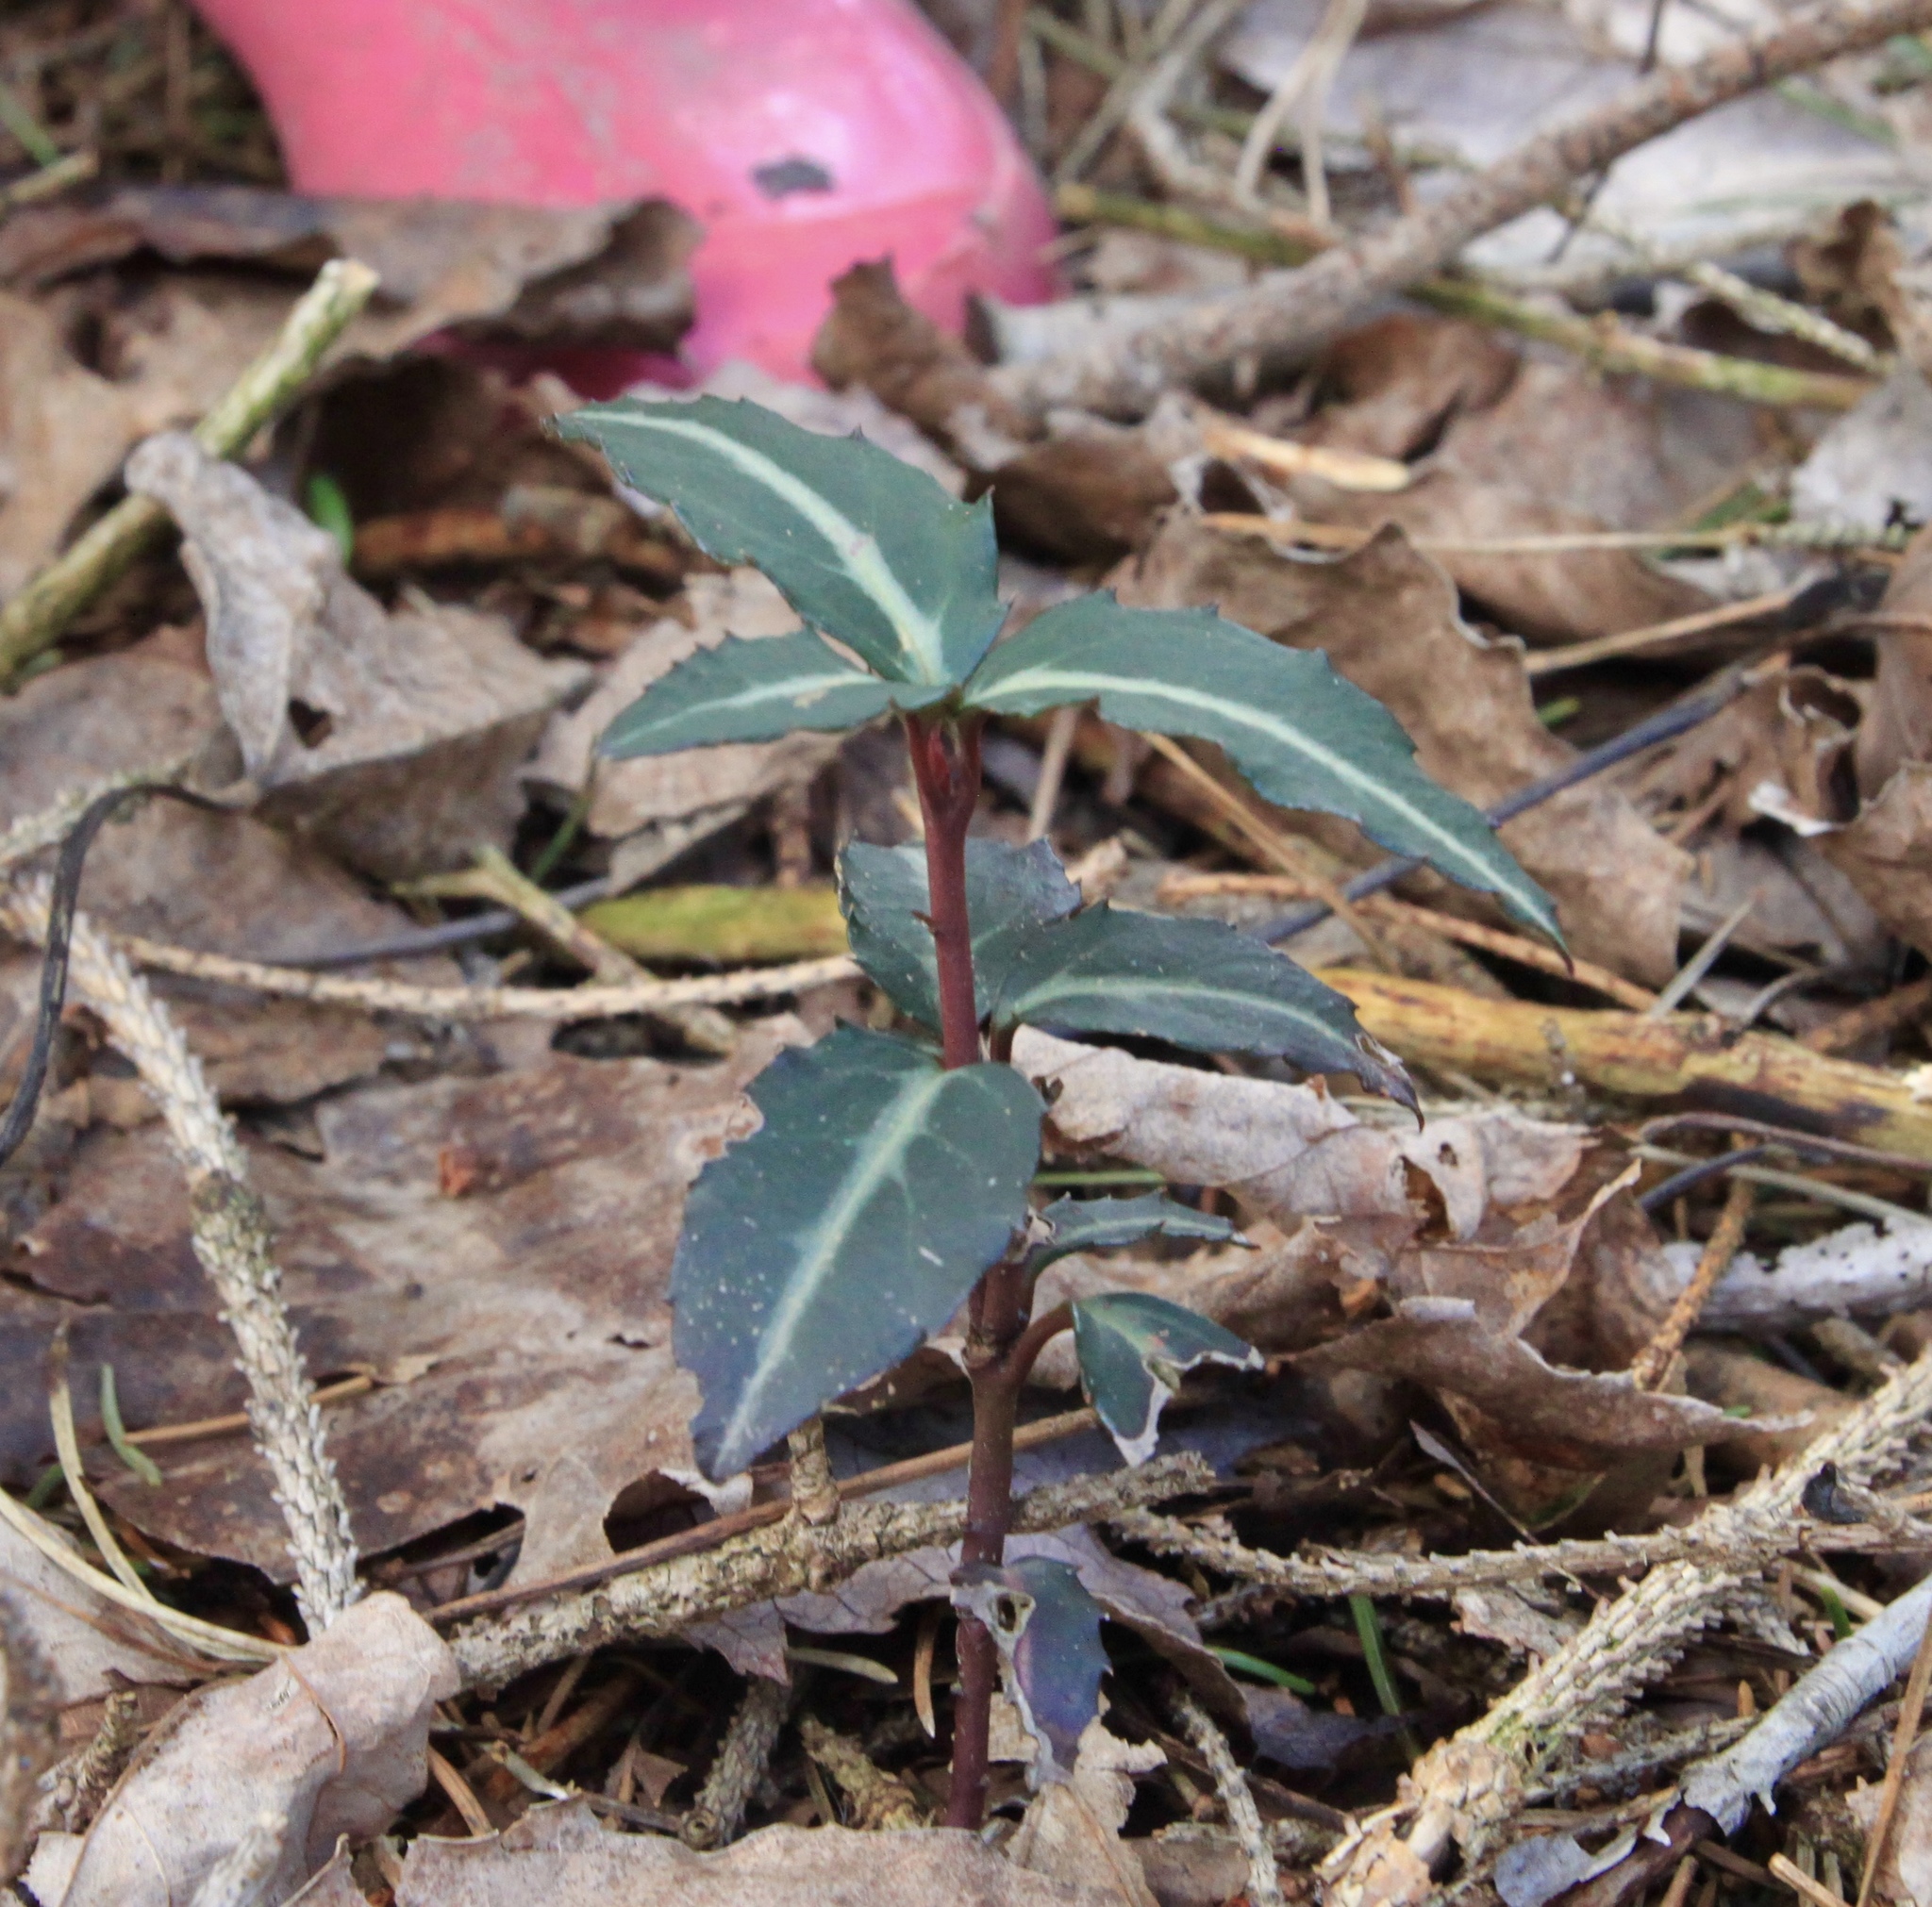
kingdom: Plantae
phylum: Tracheophyta
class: Magnoliopsida
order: Ericales
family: Ericaceae
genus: Chimaphila
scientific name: Chimaphila maculata
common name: Spotted pipsissewa
